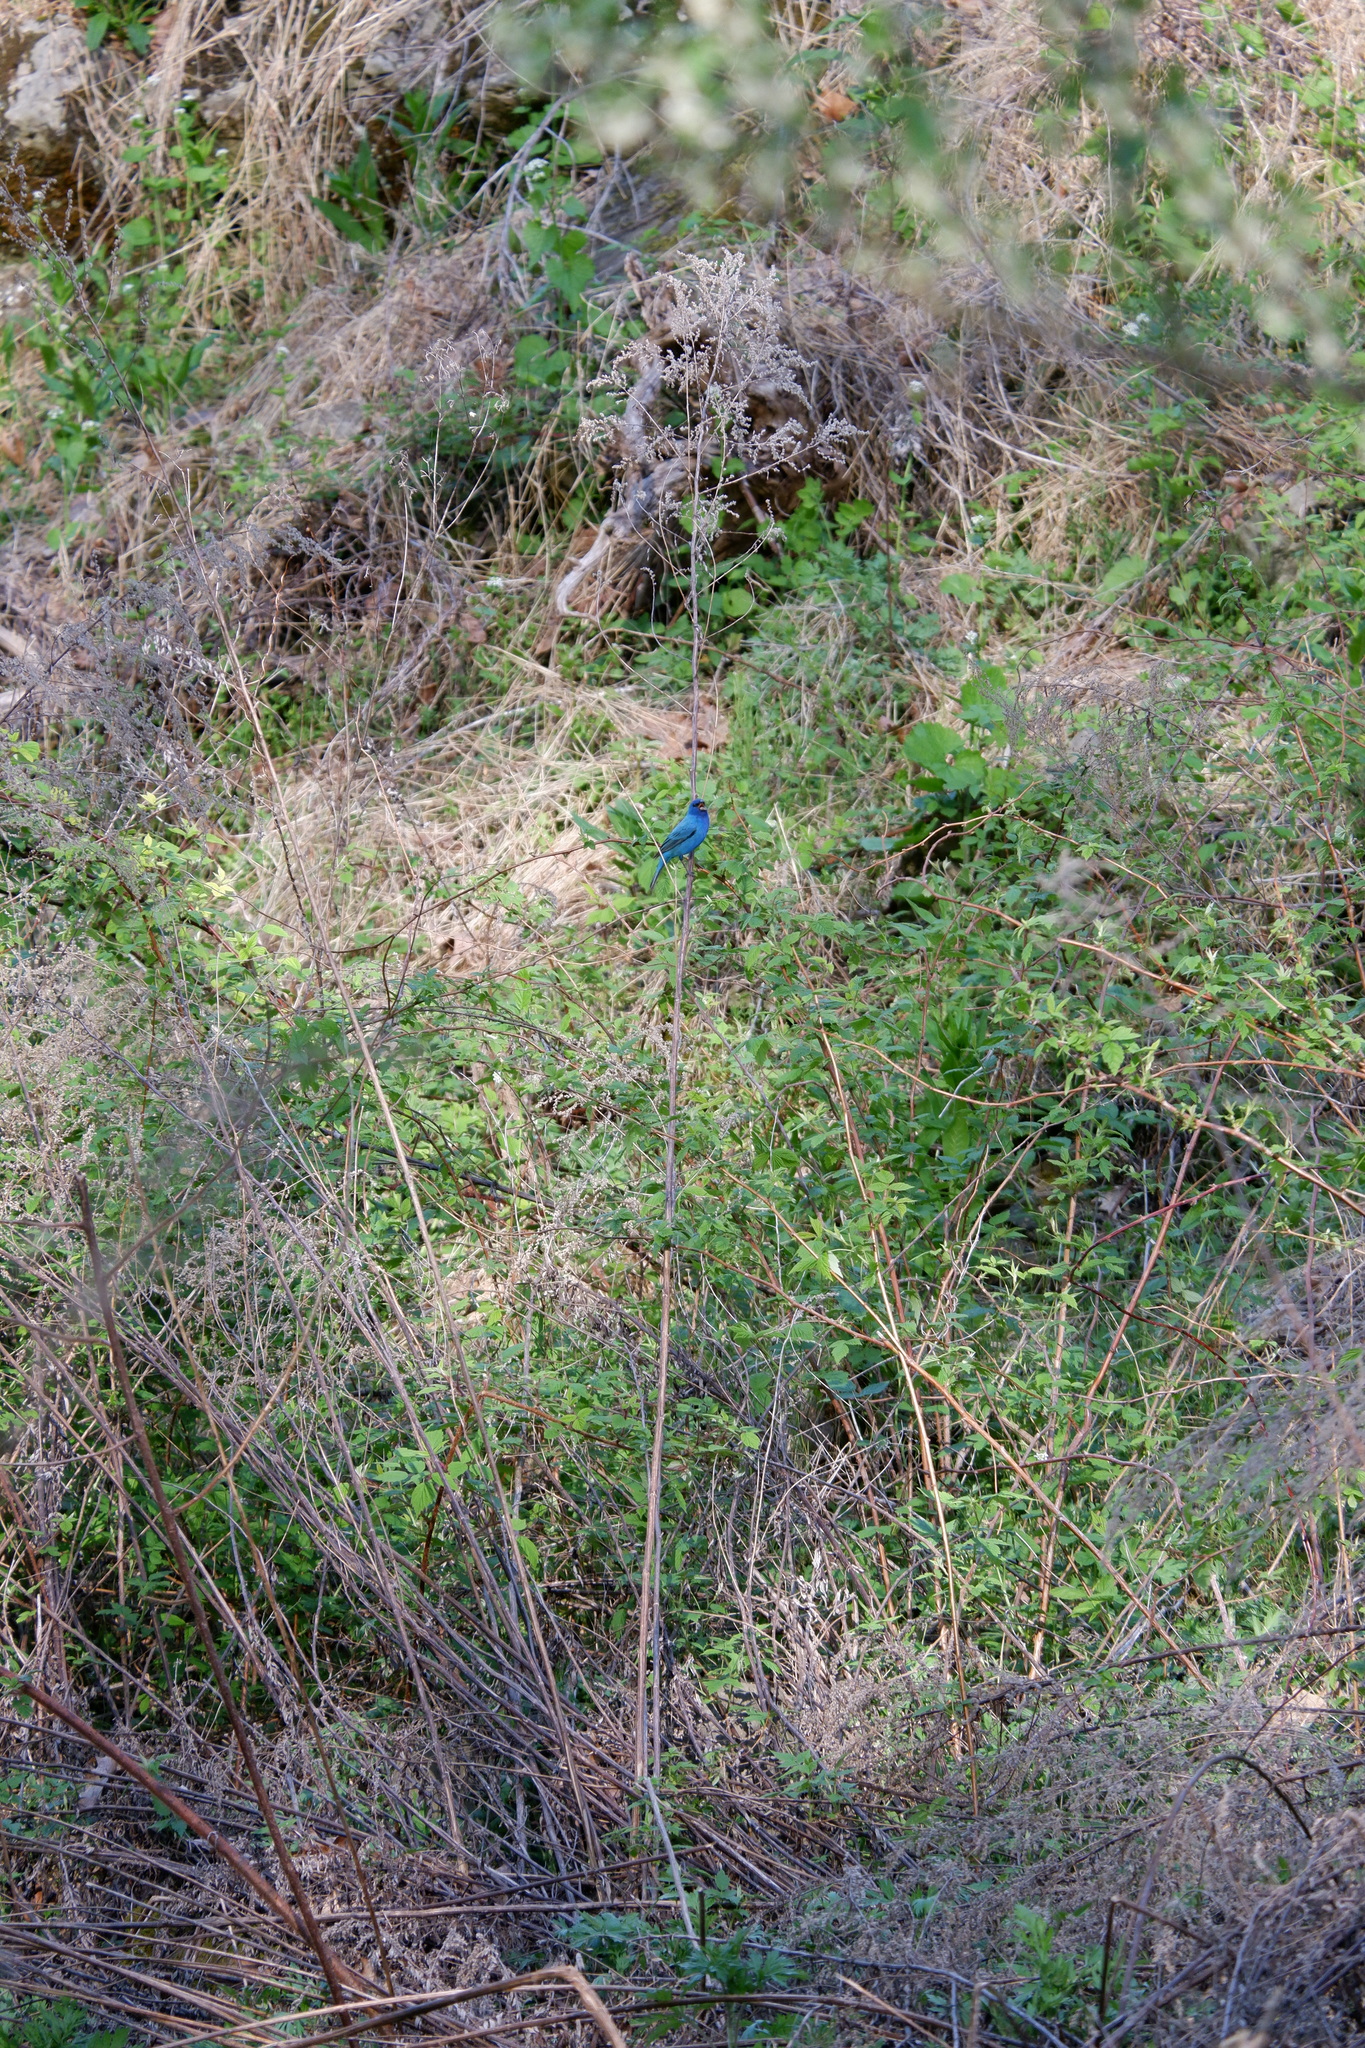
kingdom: Animalia
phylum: Chordata
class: Aves
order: Passeriformes
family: Cardinalidae
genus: Passerina
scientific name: Passerina cyanea
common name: Indigo bunting
